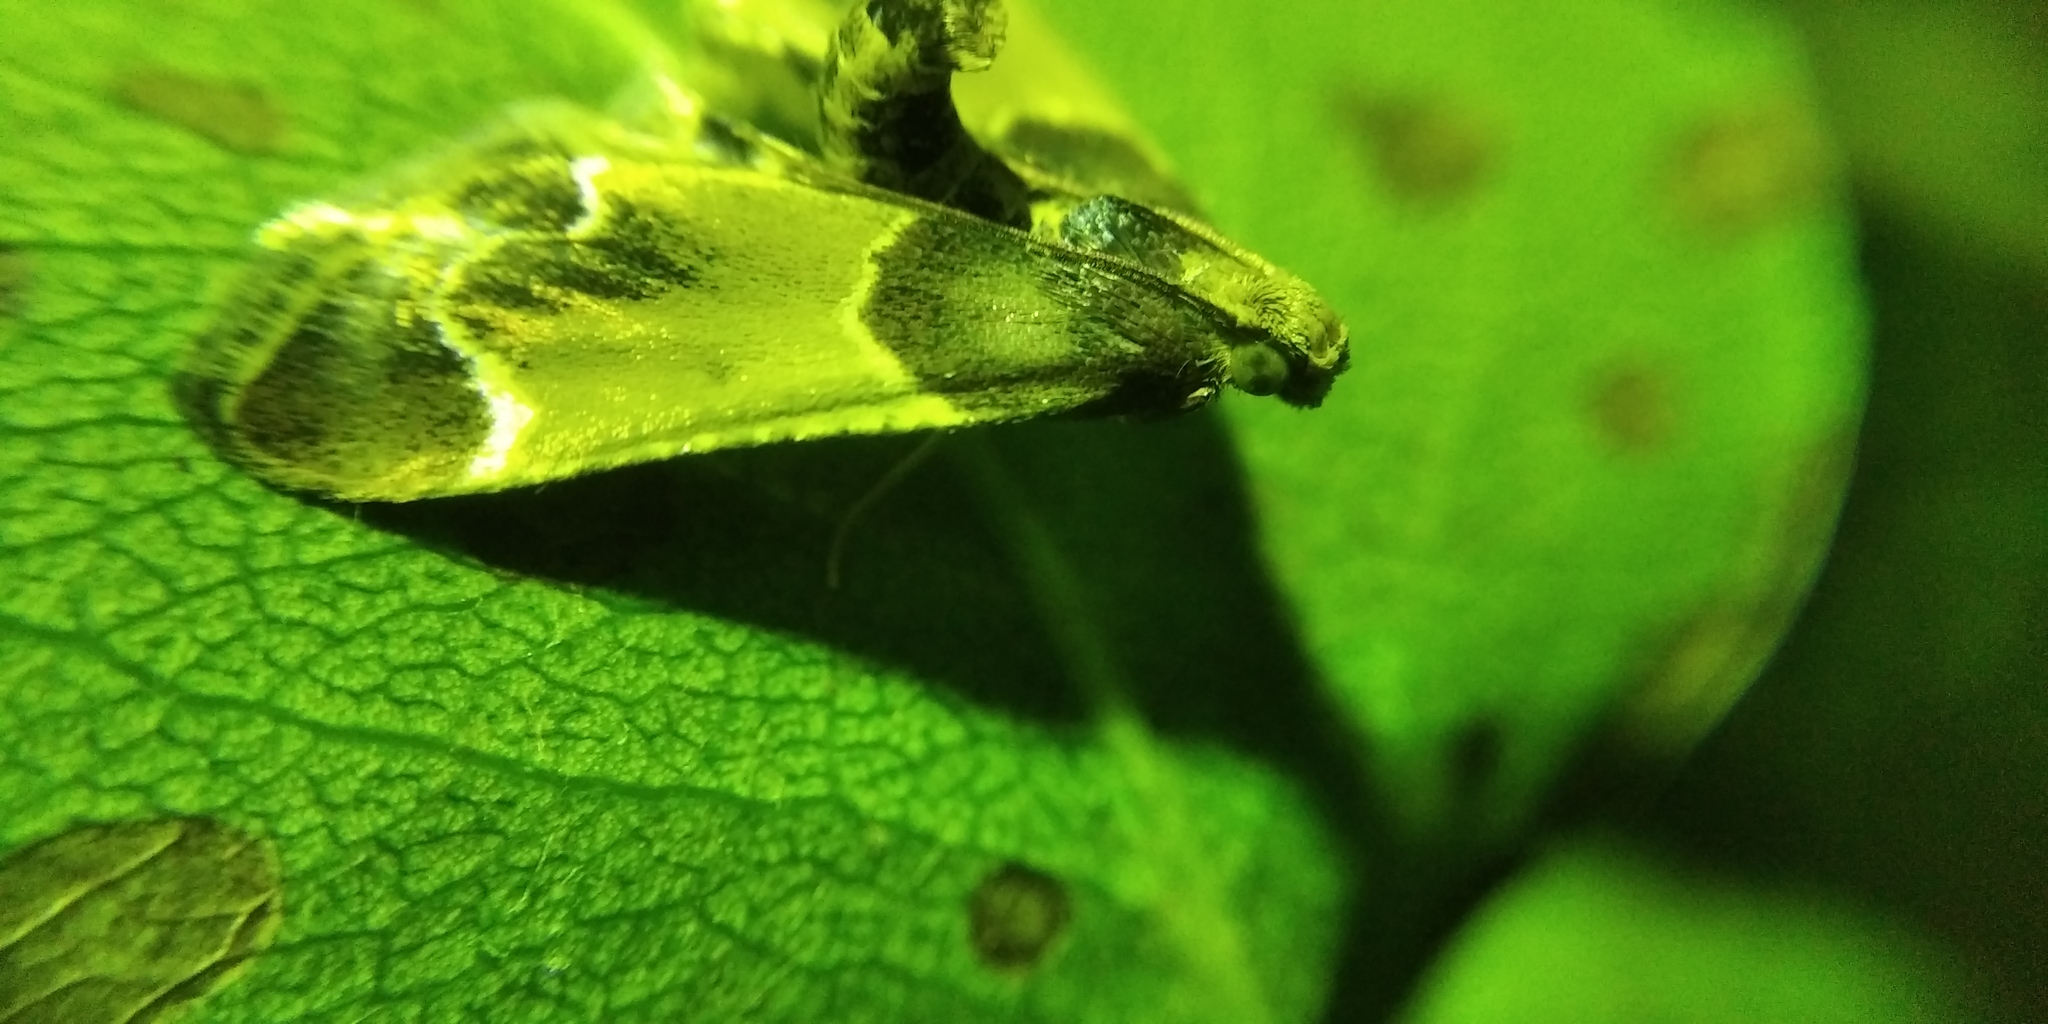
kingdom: Animalia
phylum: Arthropoda
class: Insecta
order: Lepidoptera
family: Pyralidae
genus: Pyralis
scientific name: Pyralis farinalis
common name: Meal moth
